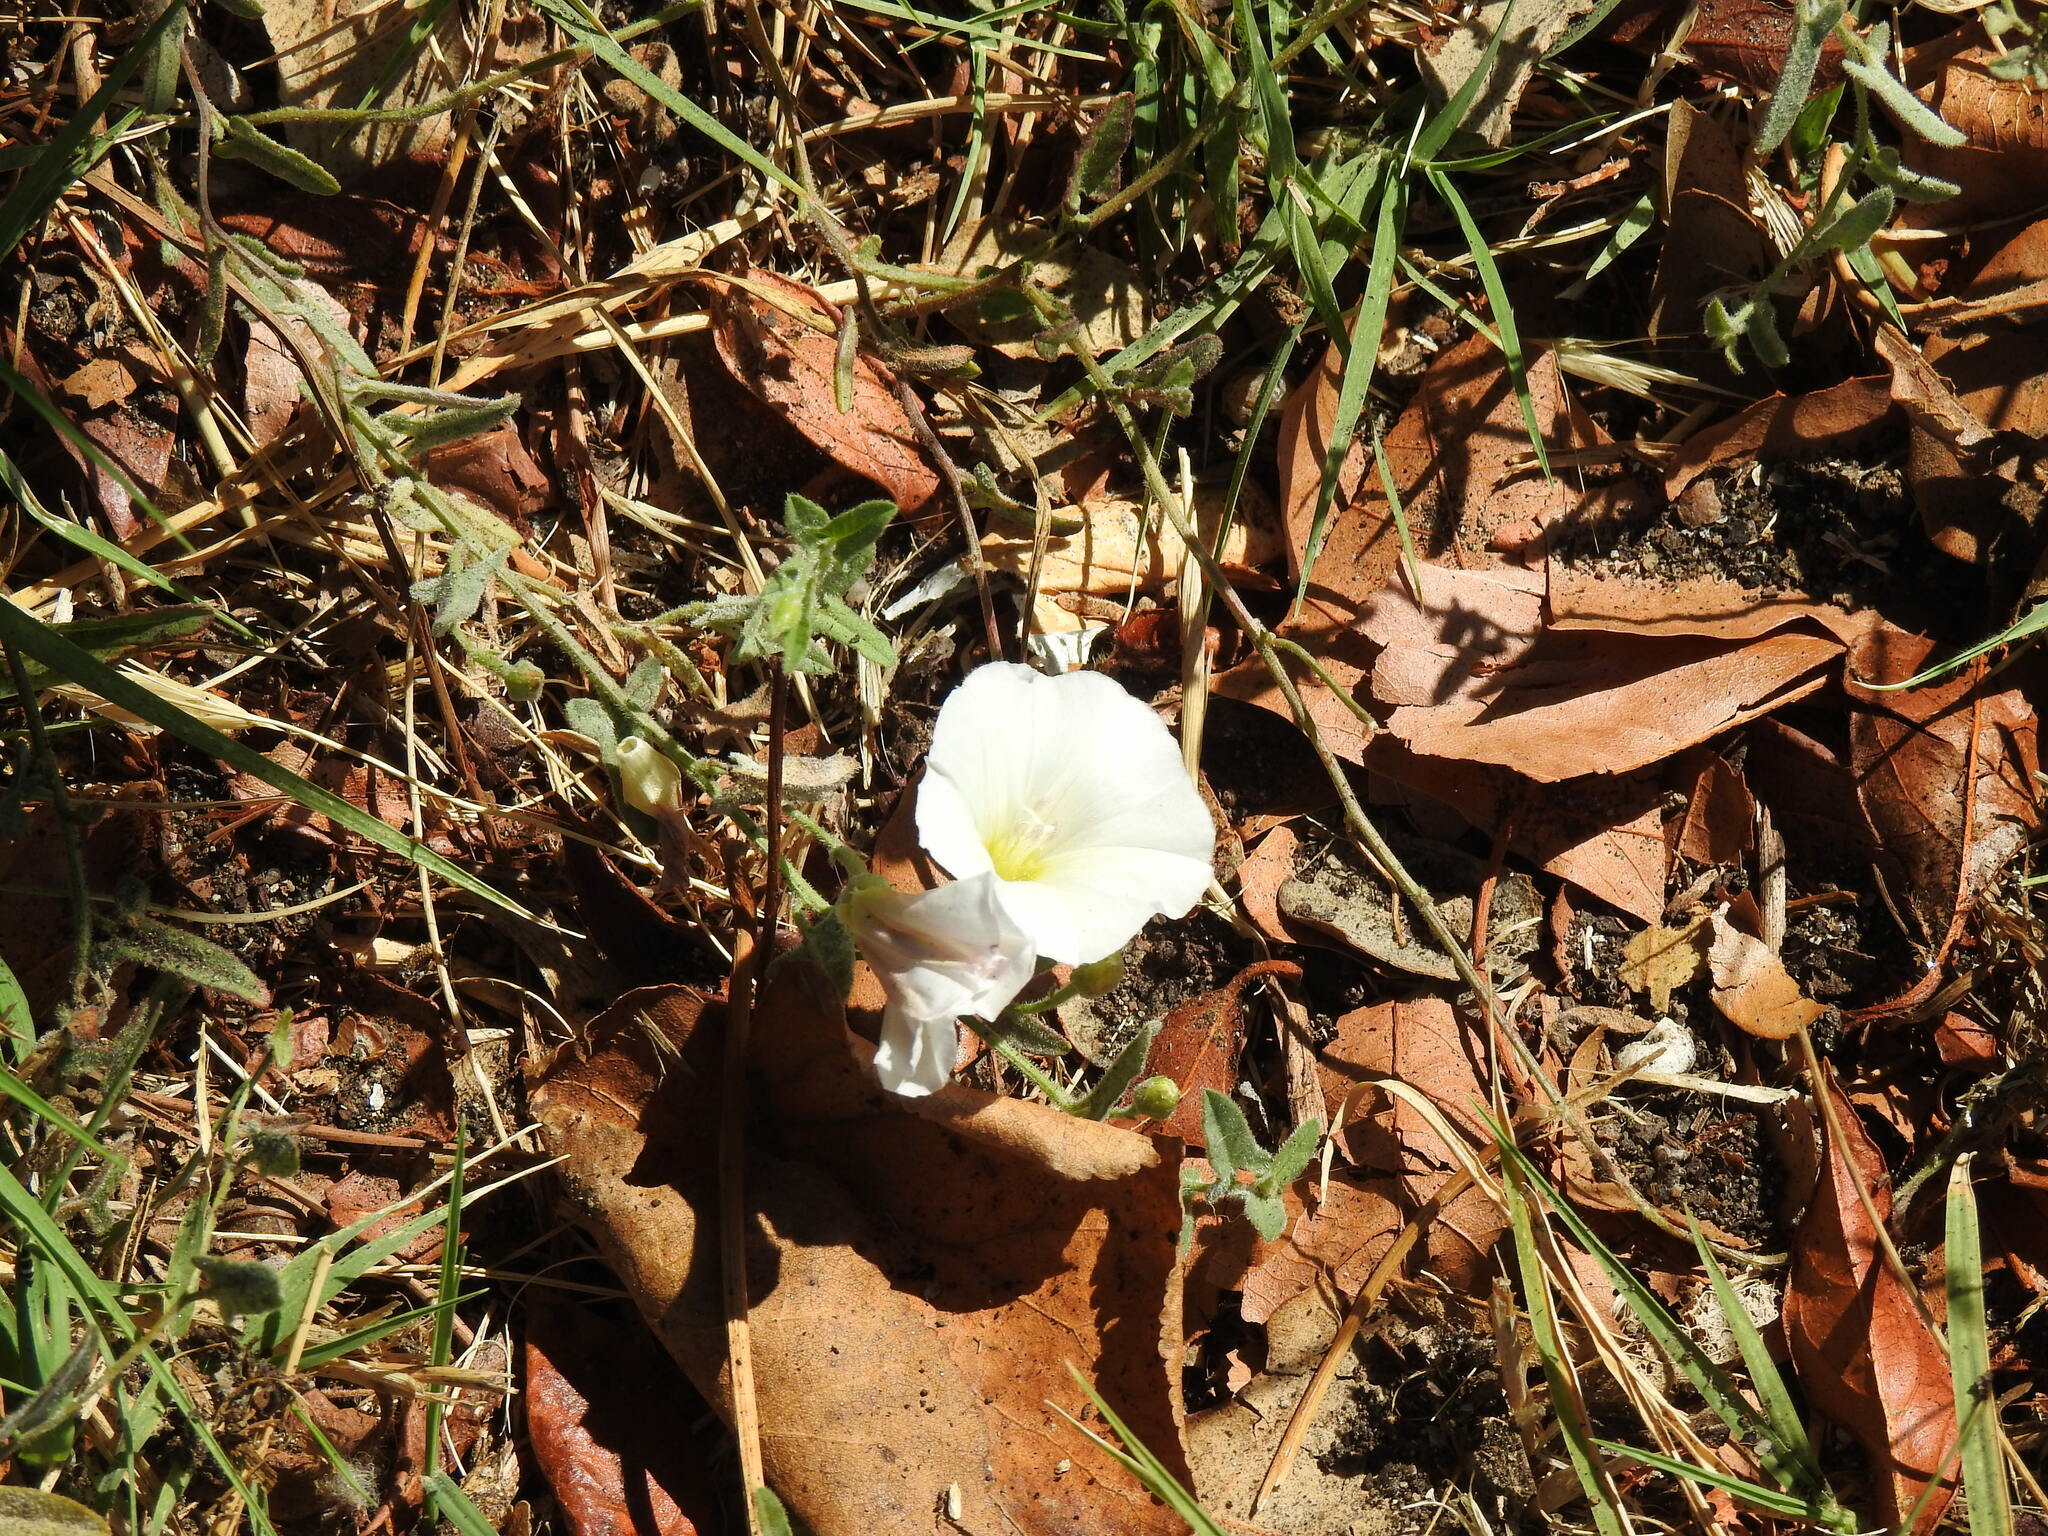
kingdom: Plantae
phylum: Tracheophyta
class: Magnoliopsida
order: Solanales
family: Convolvulaceae
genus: Convolvulus
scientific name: Convolvulus arvensis
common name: Field bindweed
